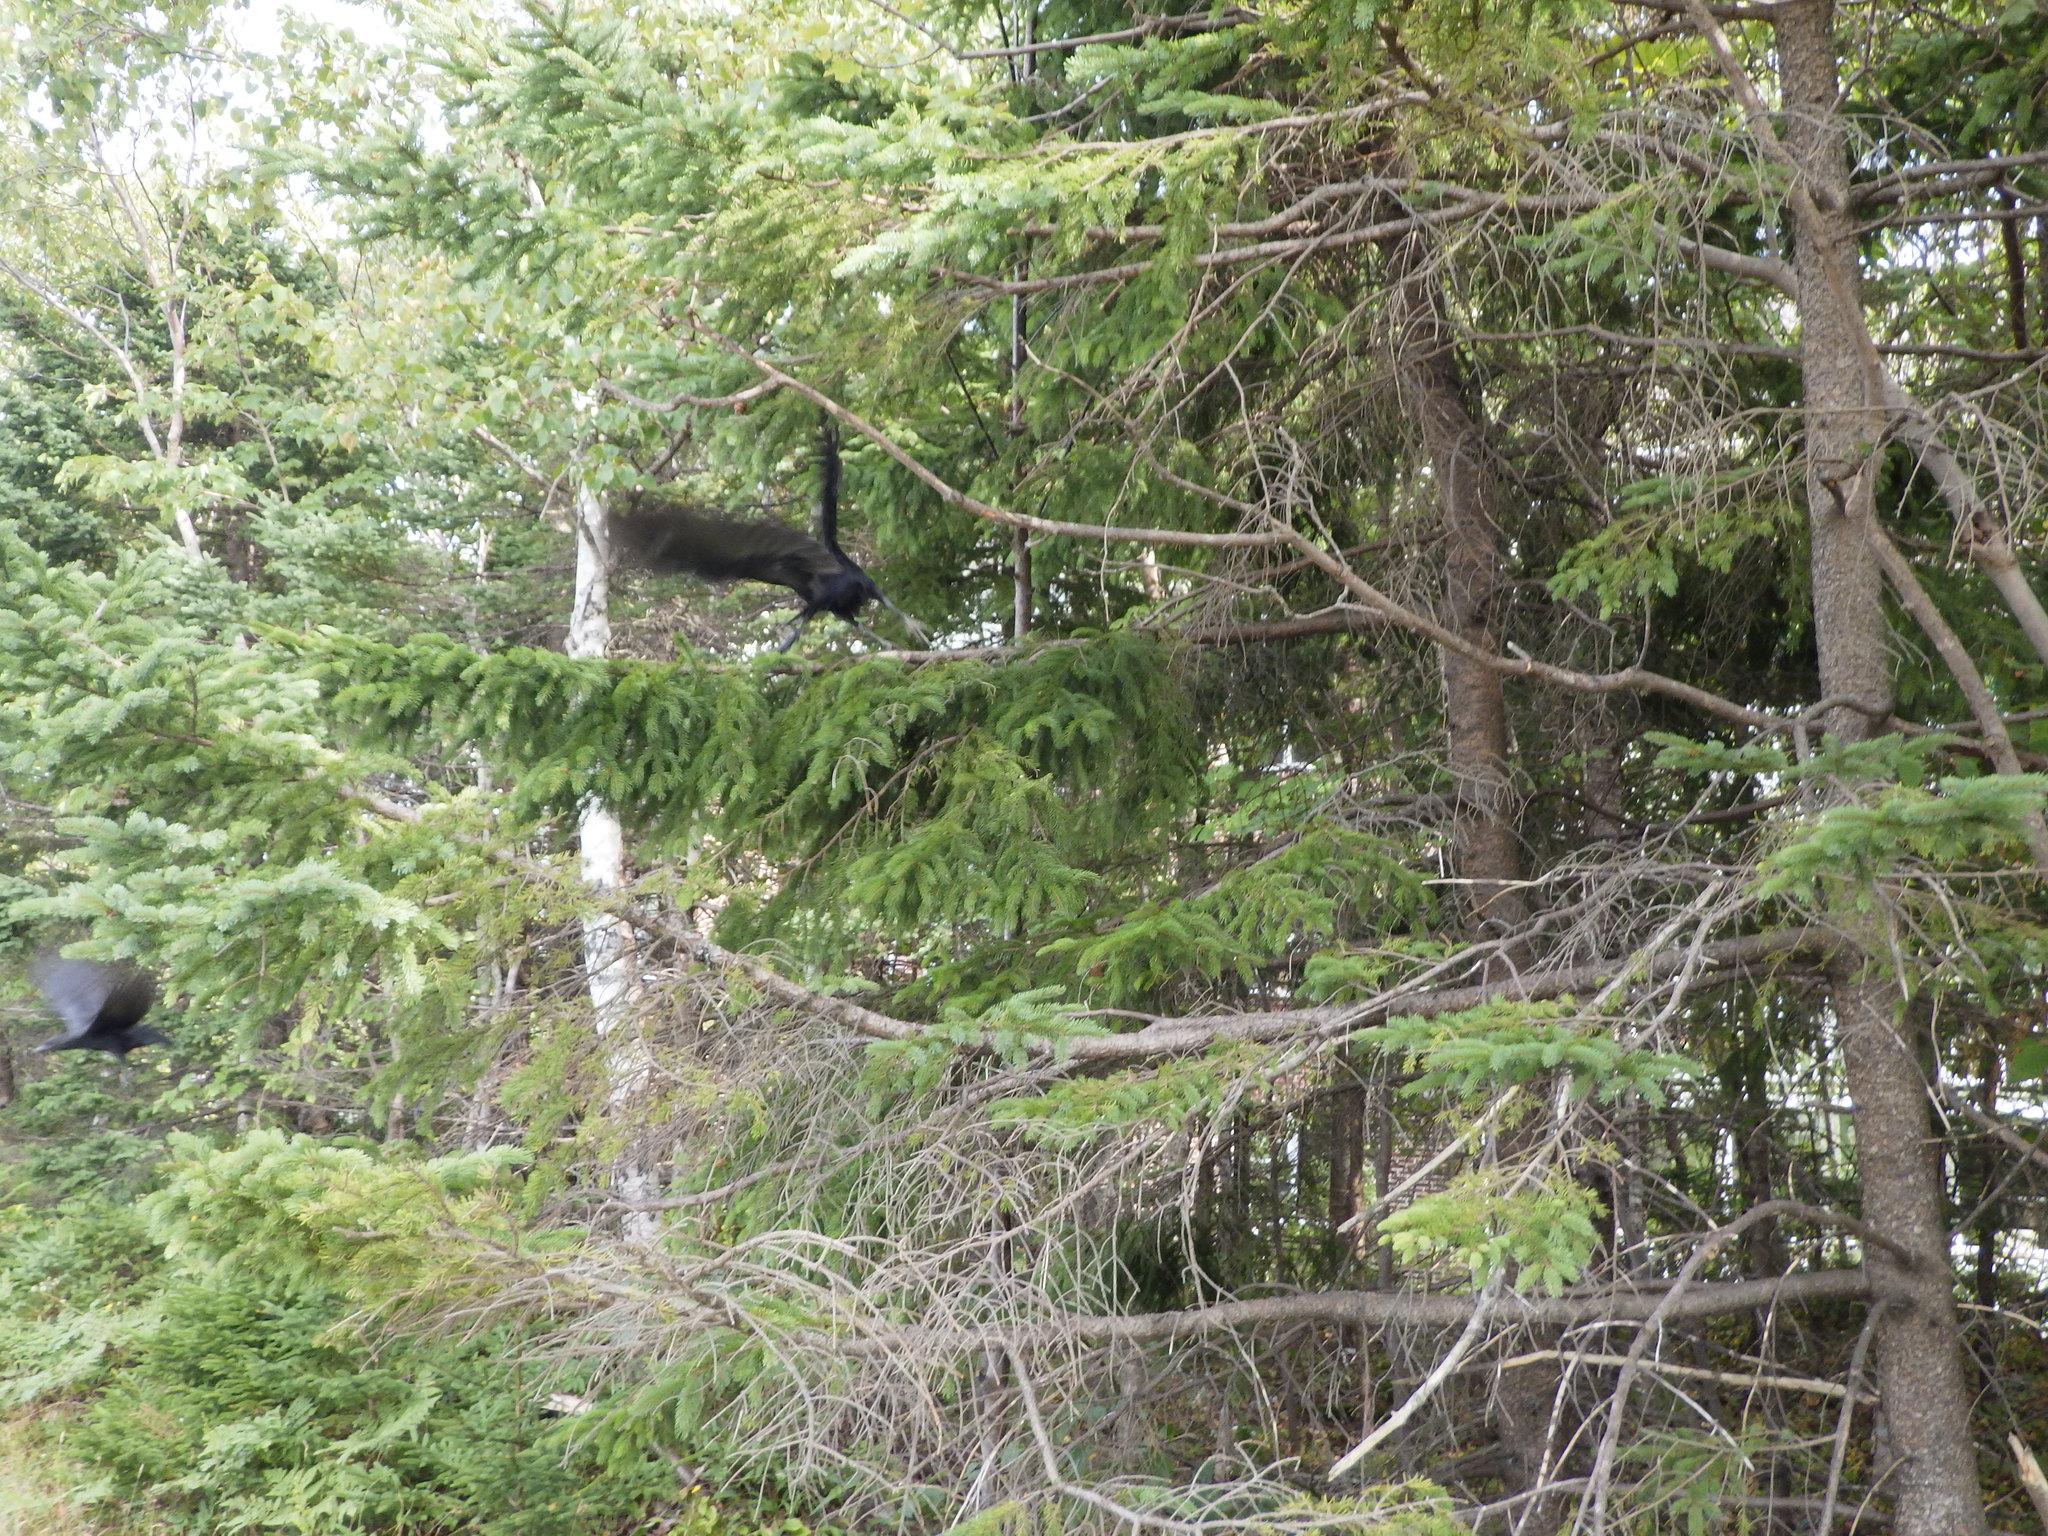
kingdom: Animalia
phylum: Chordata
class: Aves
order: Passeriformes
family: Corvidae
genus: Corvus
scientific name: Corvus brachyrhynchos
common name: American crow
